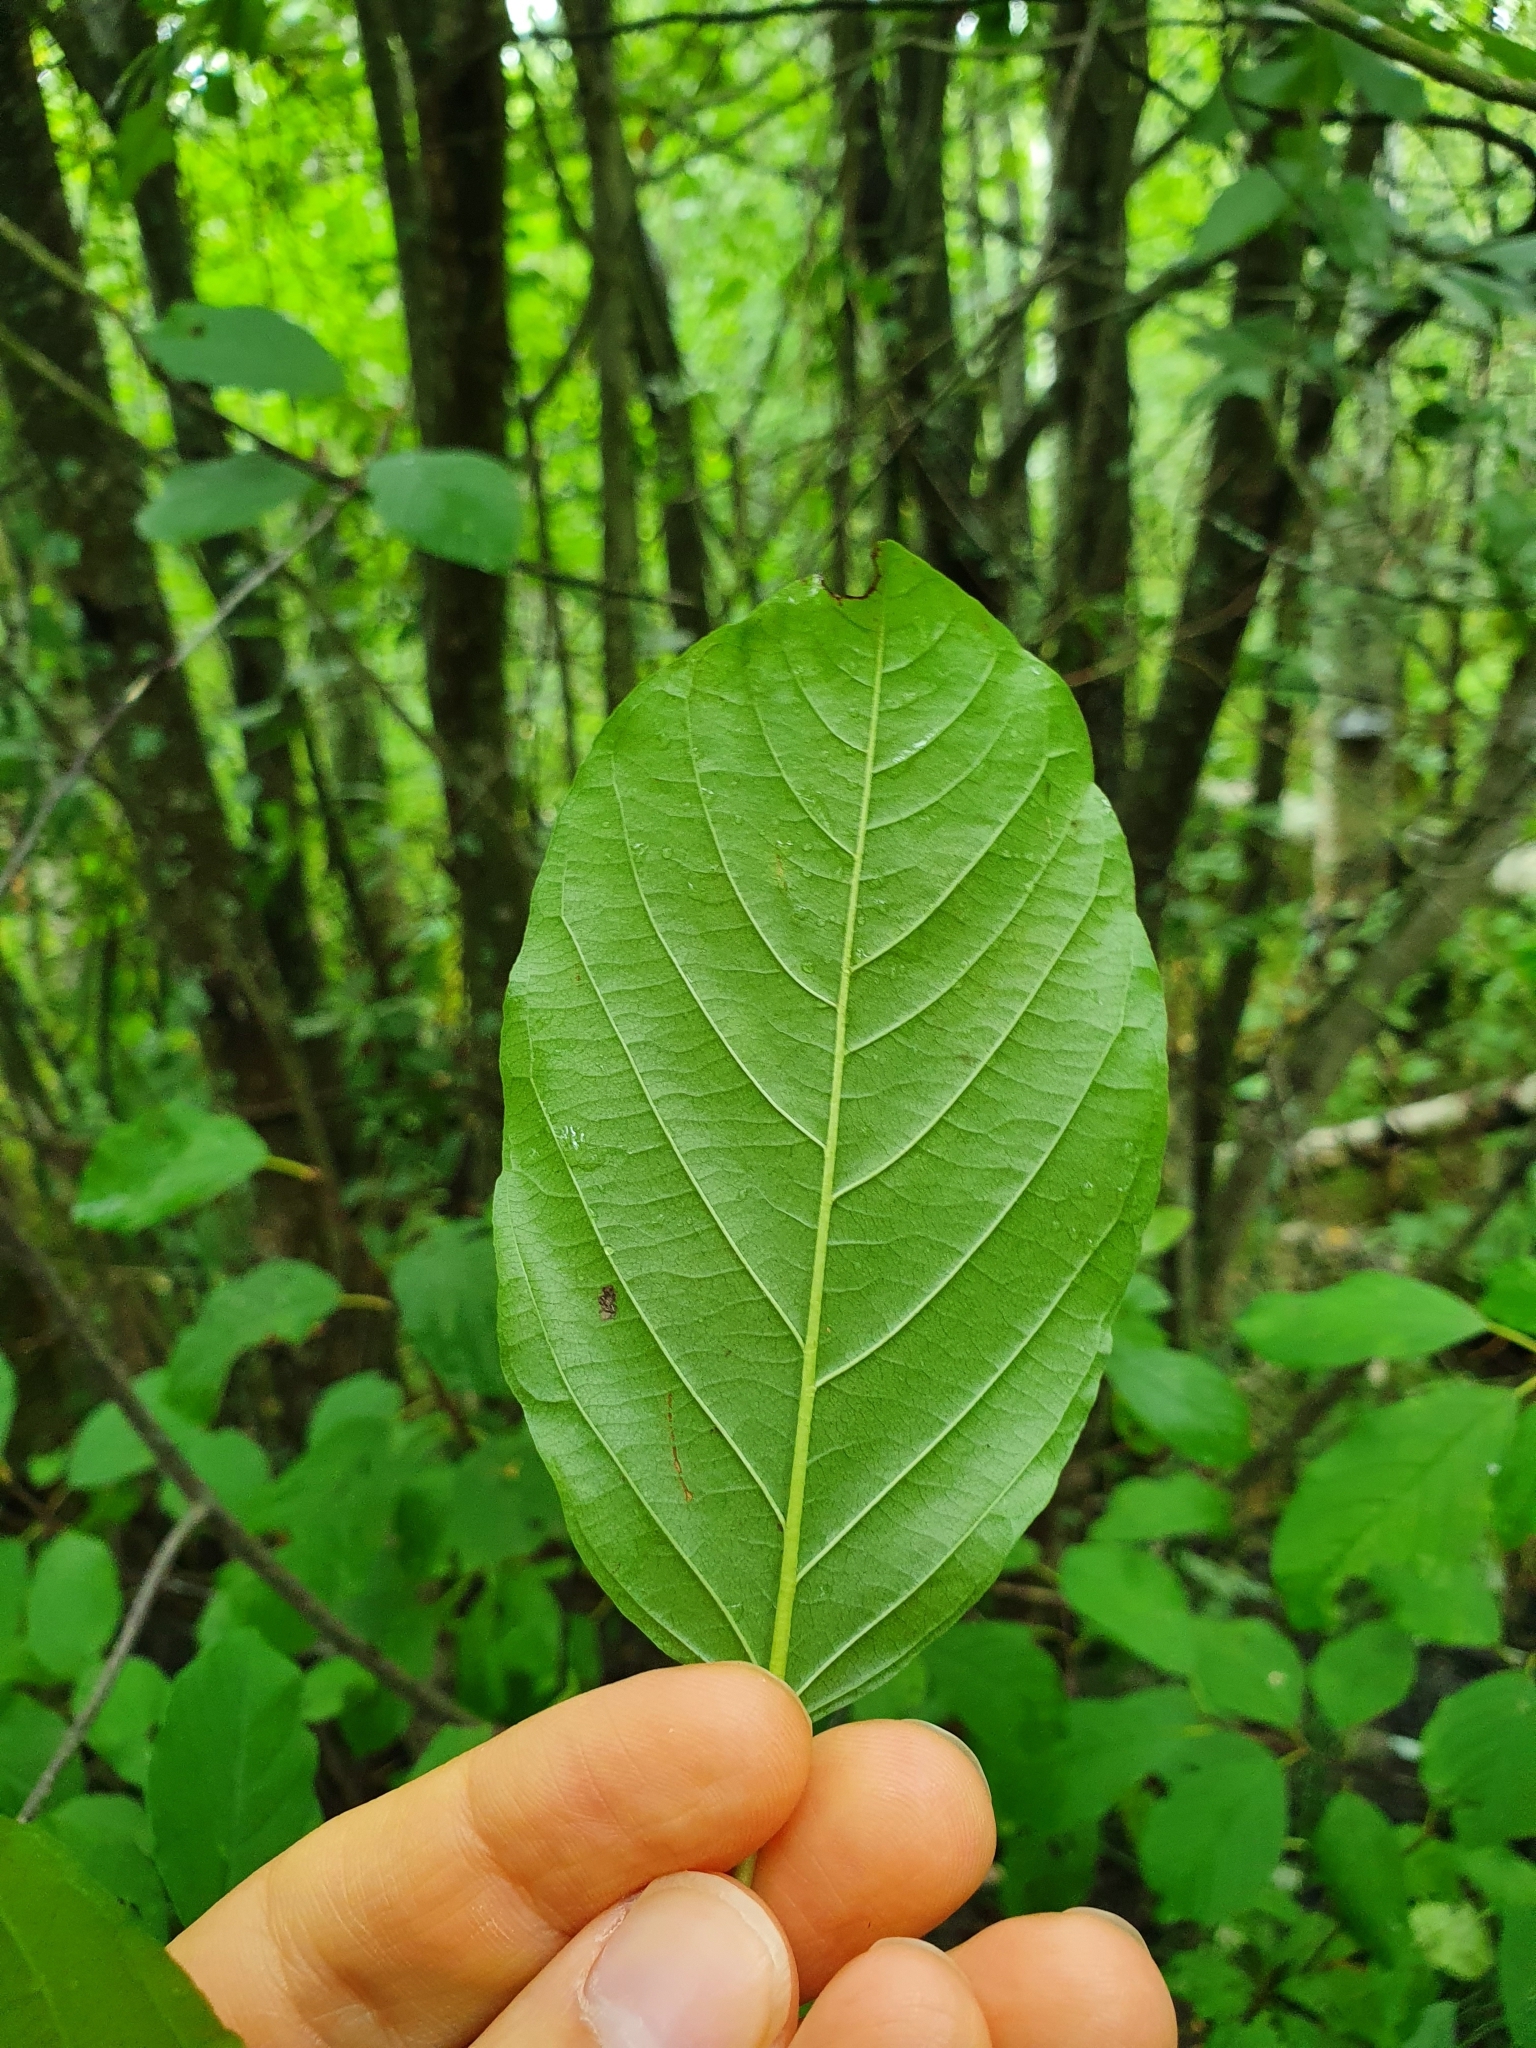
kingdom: Plantae
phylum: Tracheophyta
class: Magnoliopsida
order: Rosales
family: Rhamnaceae
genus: Frangula
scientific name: Frangula alnus
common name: Alder buckthorn
